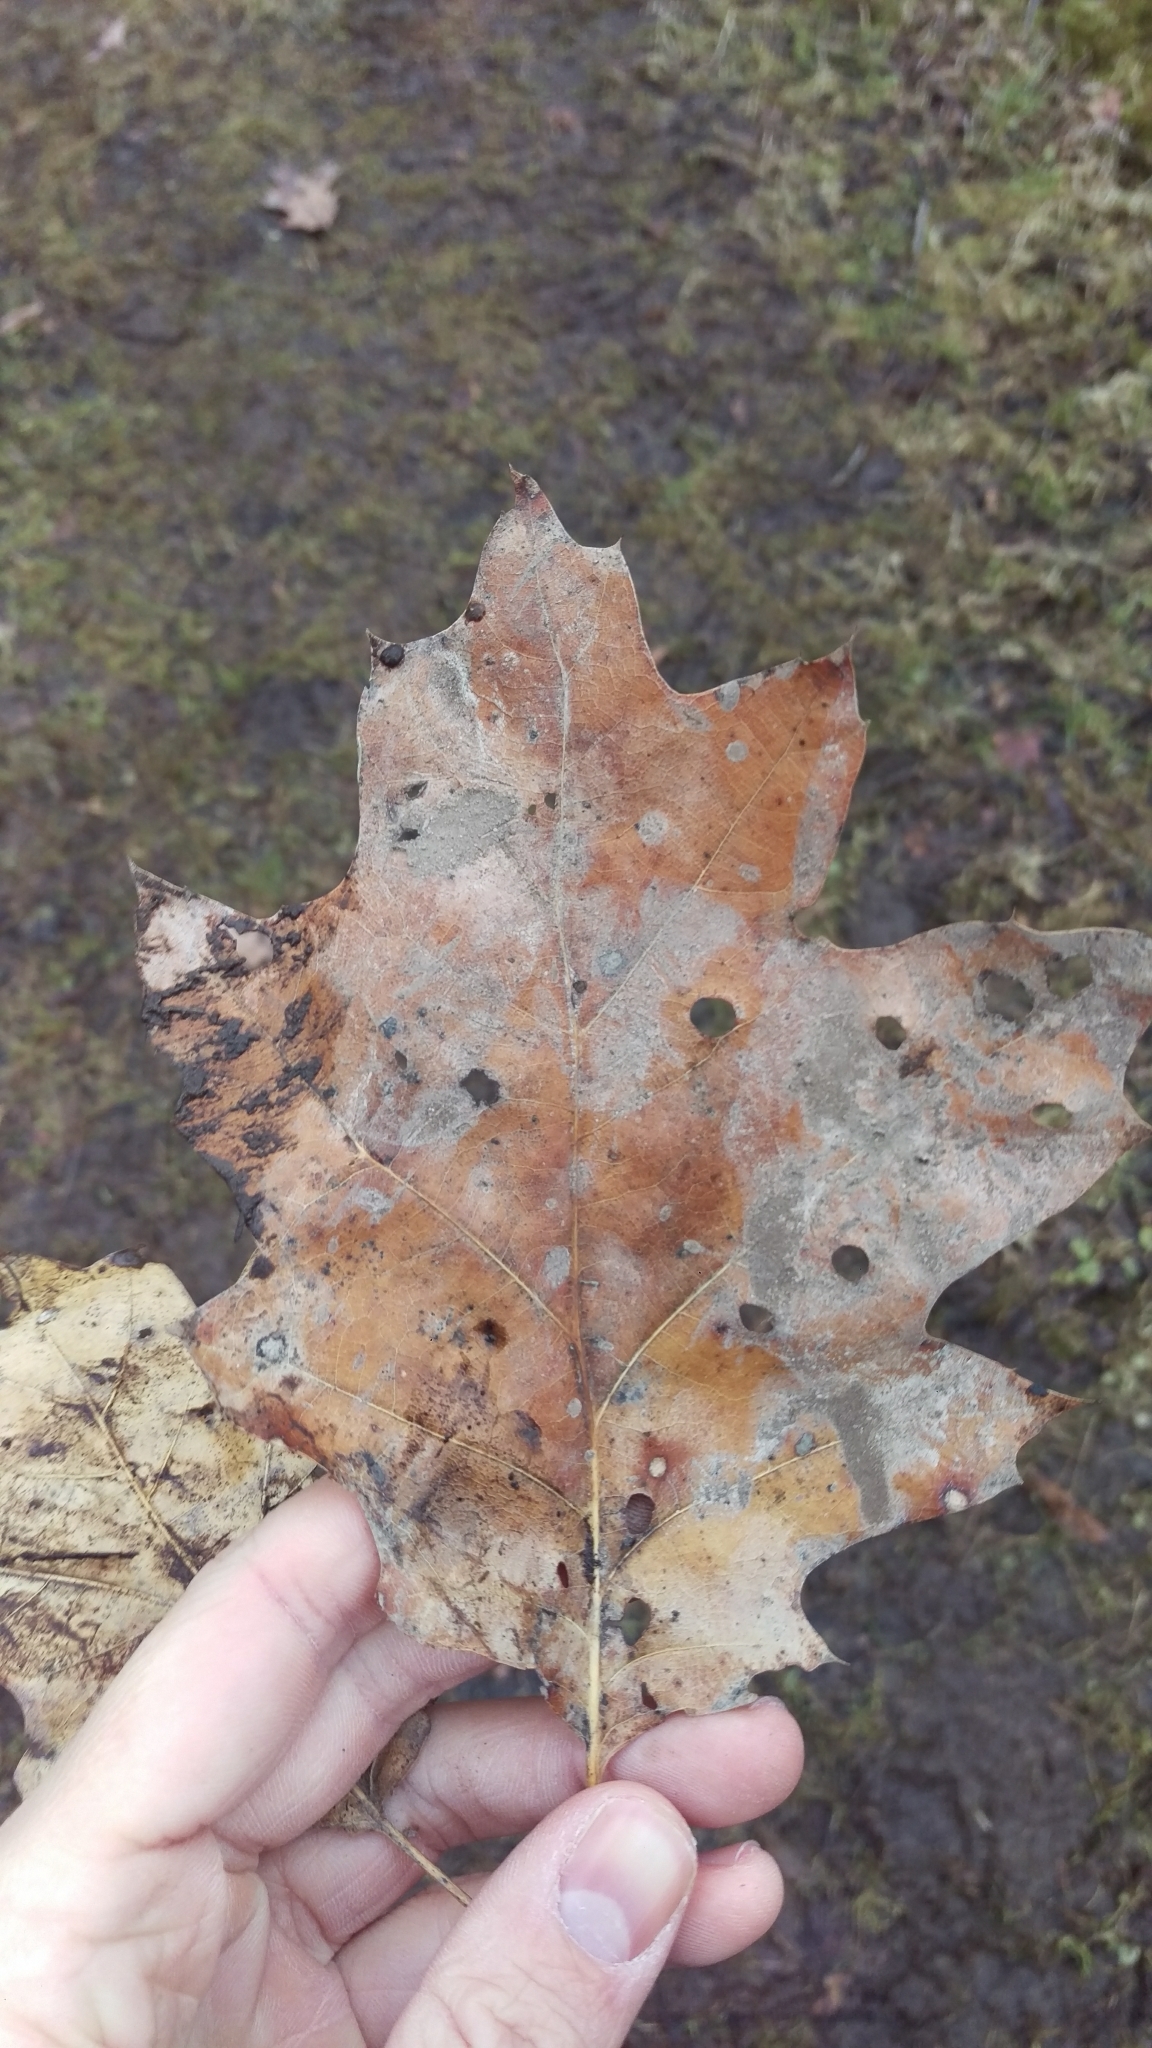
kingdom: Plantae
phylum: Tracheophyta
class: Magnoliopsida
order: Fagales
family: Fagaceae
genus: Quercus
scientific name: Quercus rubra
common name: Red oak
